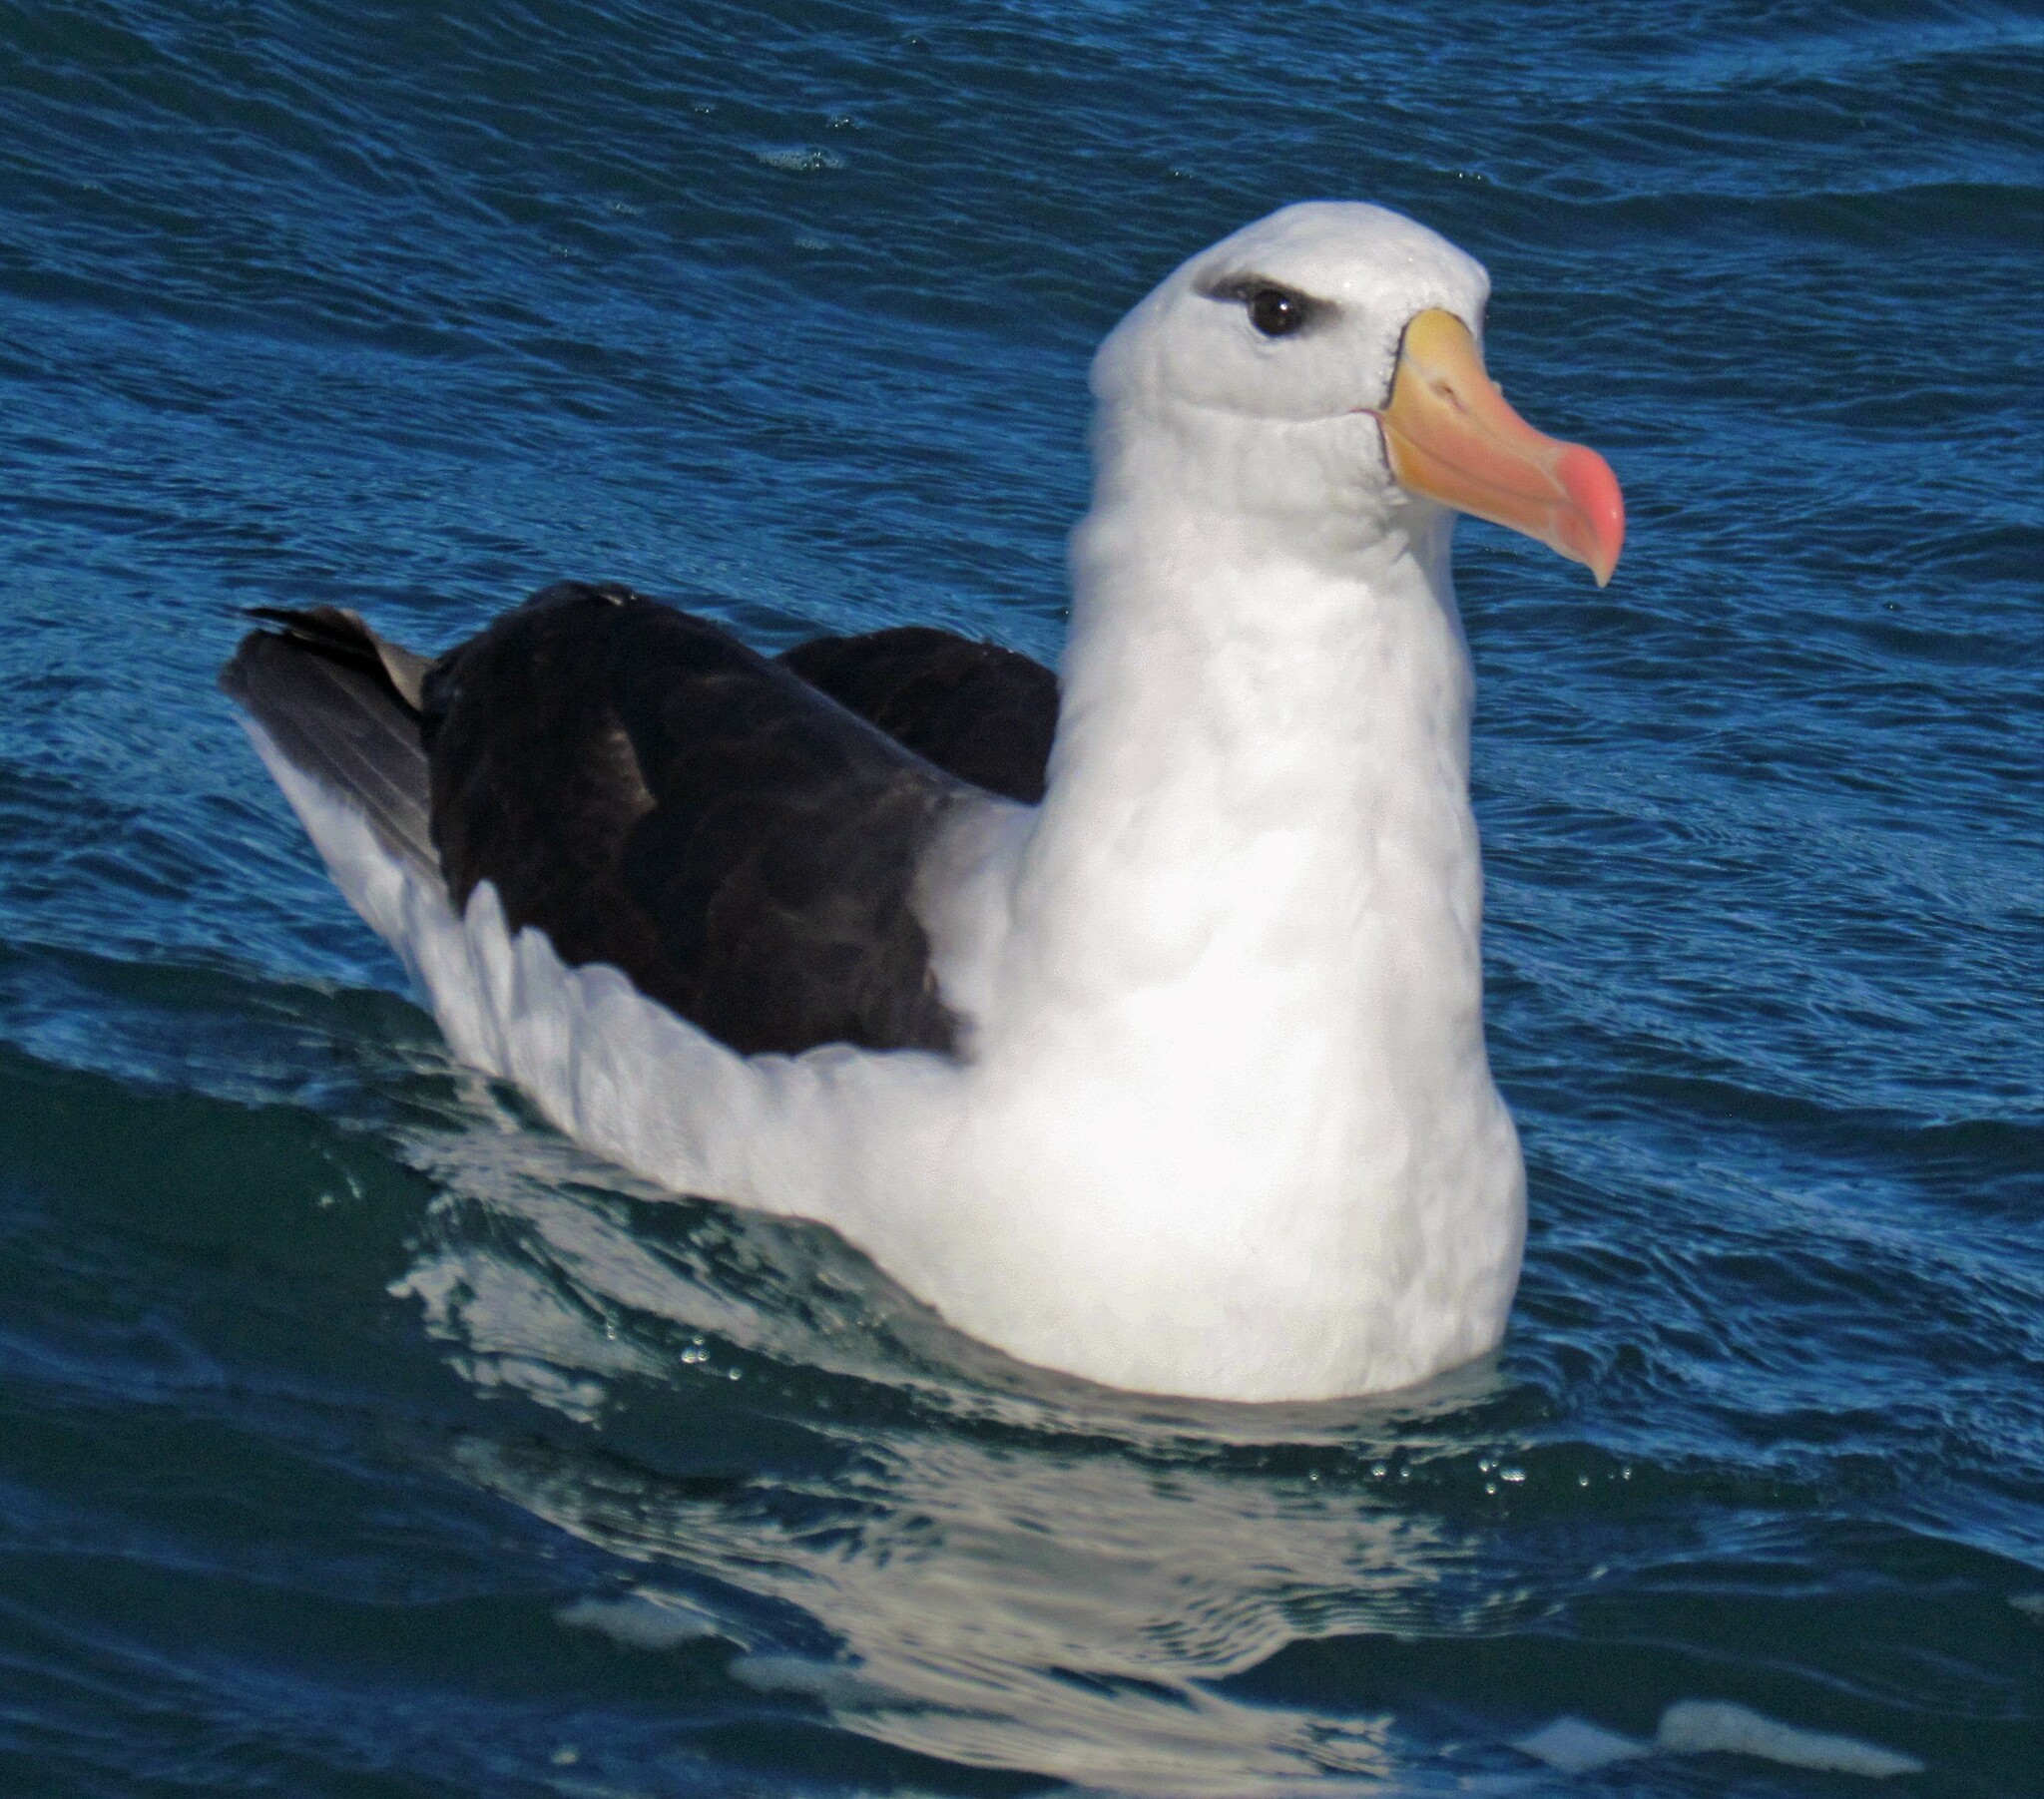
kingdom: Animalia
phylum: Chordata
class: Aves
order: Procellariiformes
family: Diomedeidae
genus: Thalassarche
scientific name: Thalassarche melanophris
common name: Black-browed albatross
